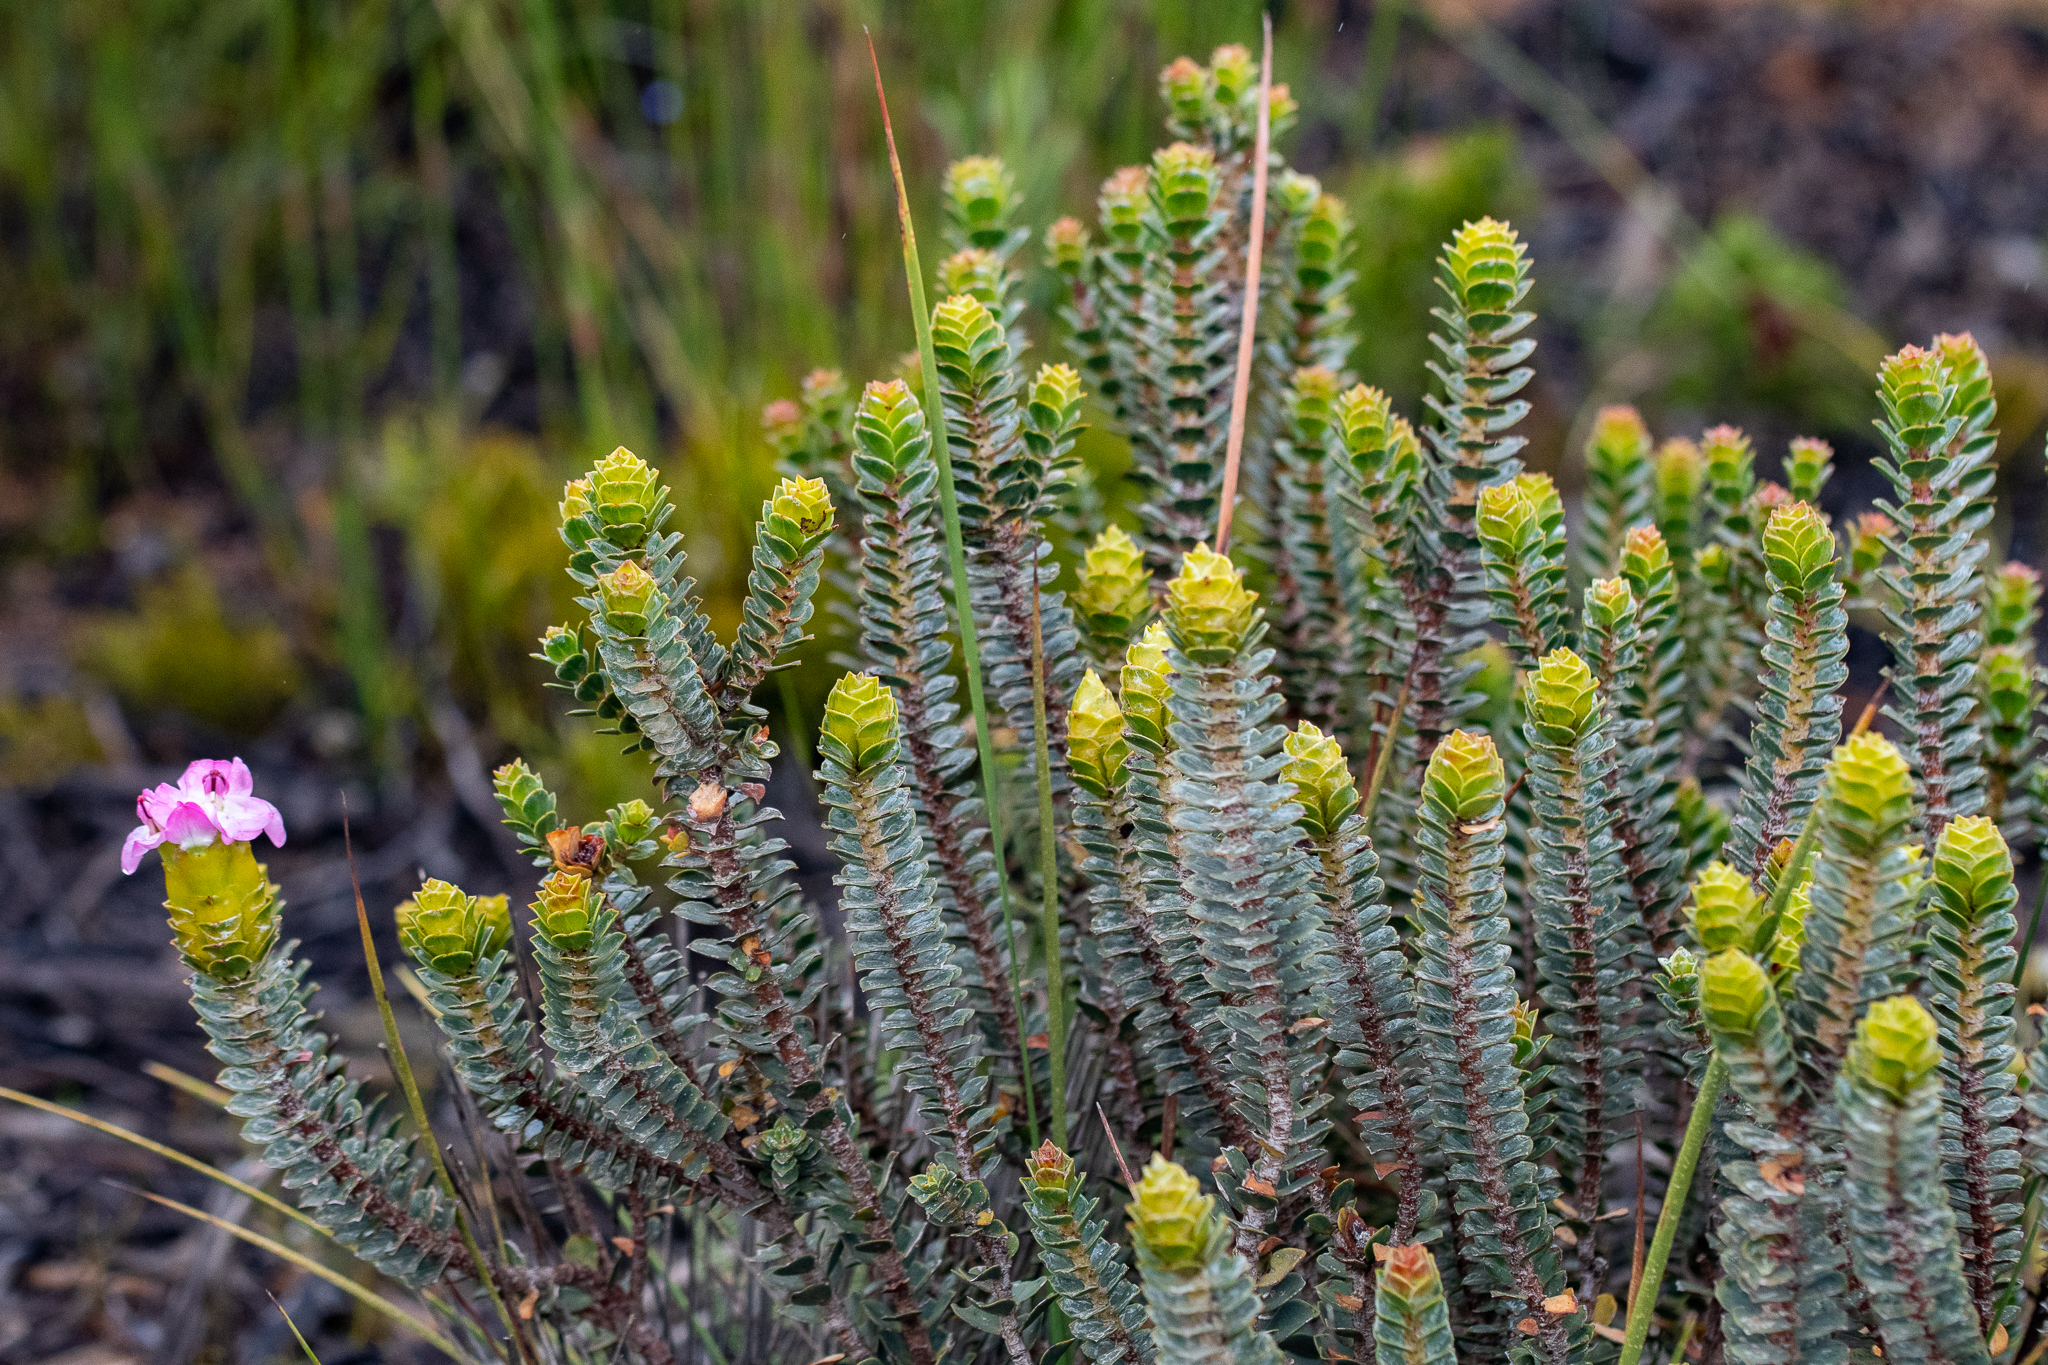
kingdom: Plantae
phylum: Tracheophyta
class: Magnoliopsida
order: Myrtales
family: Penaeaceae
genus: Saltera
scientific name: Saltera sarcocolla
